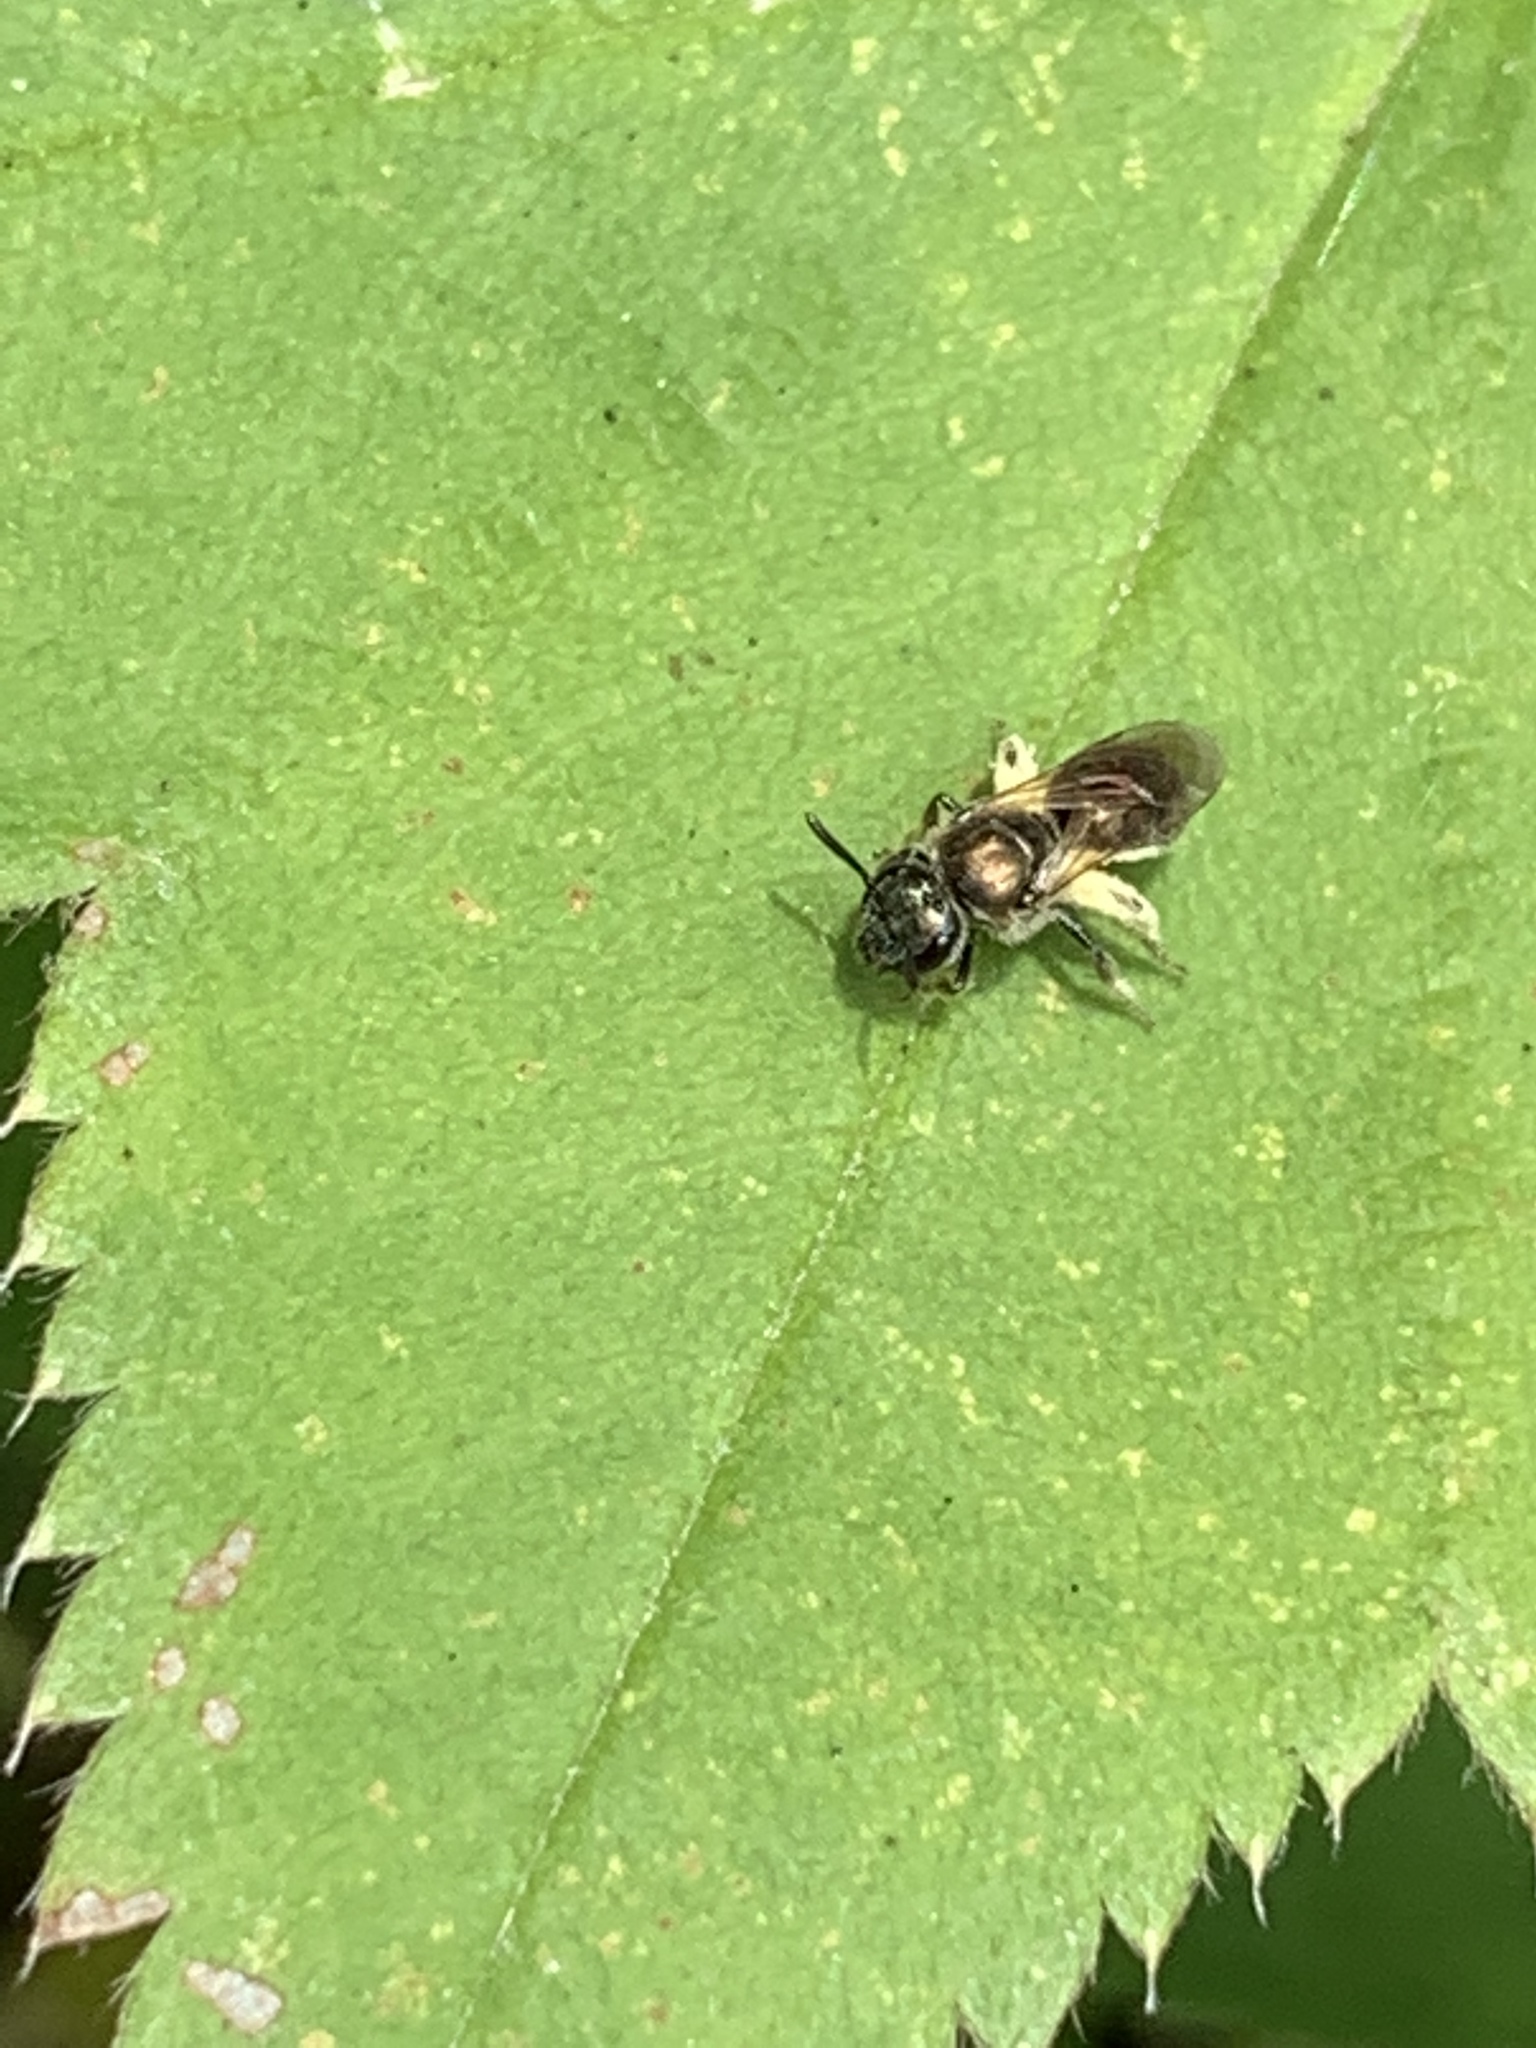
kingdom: Animalia
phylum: Arthropoda
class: Insecta
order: Hymenoptera
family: Halictidae
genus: Dialictus
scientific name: Dialictus
